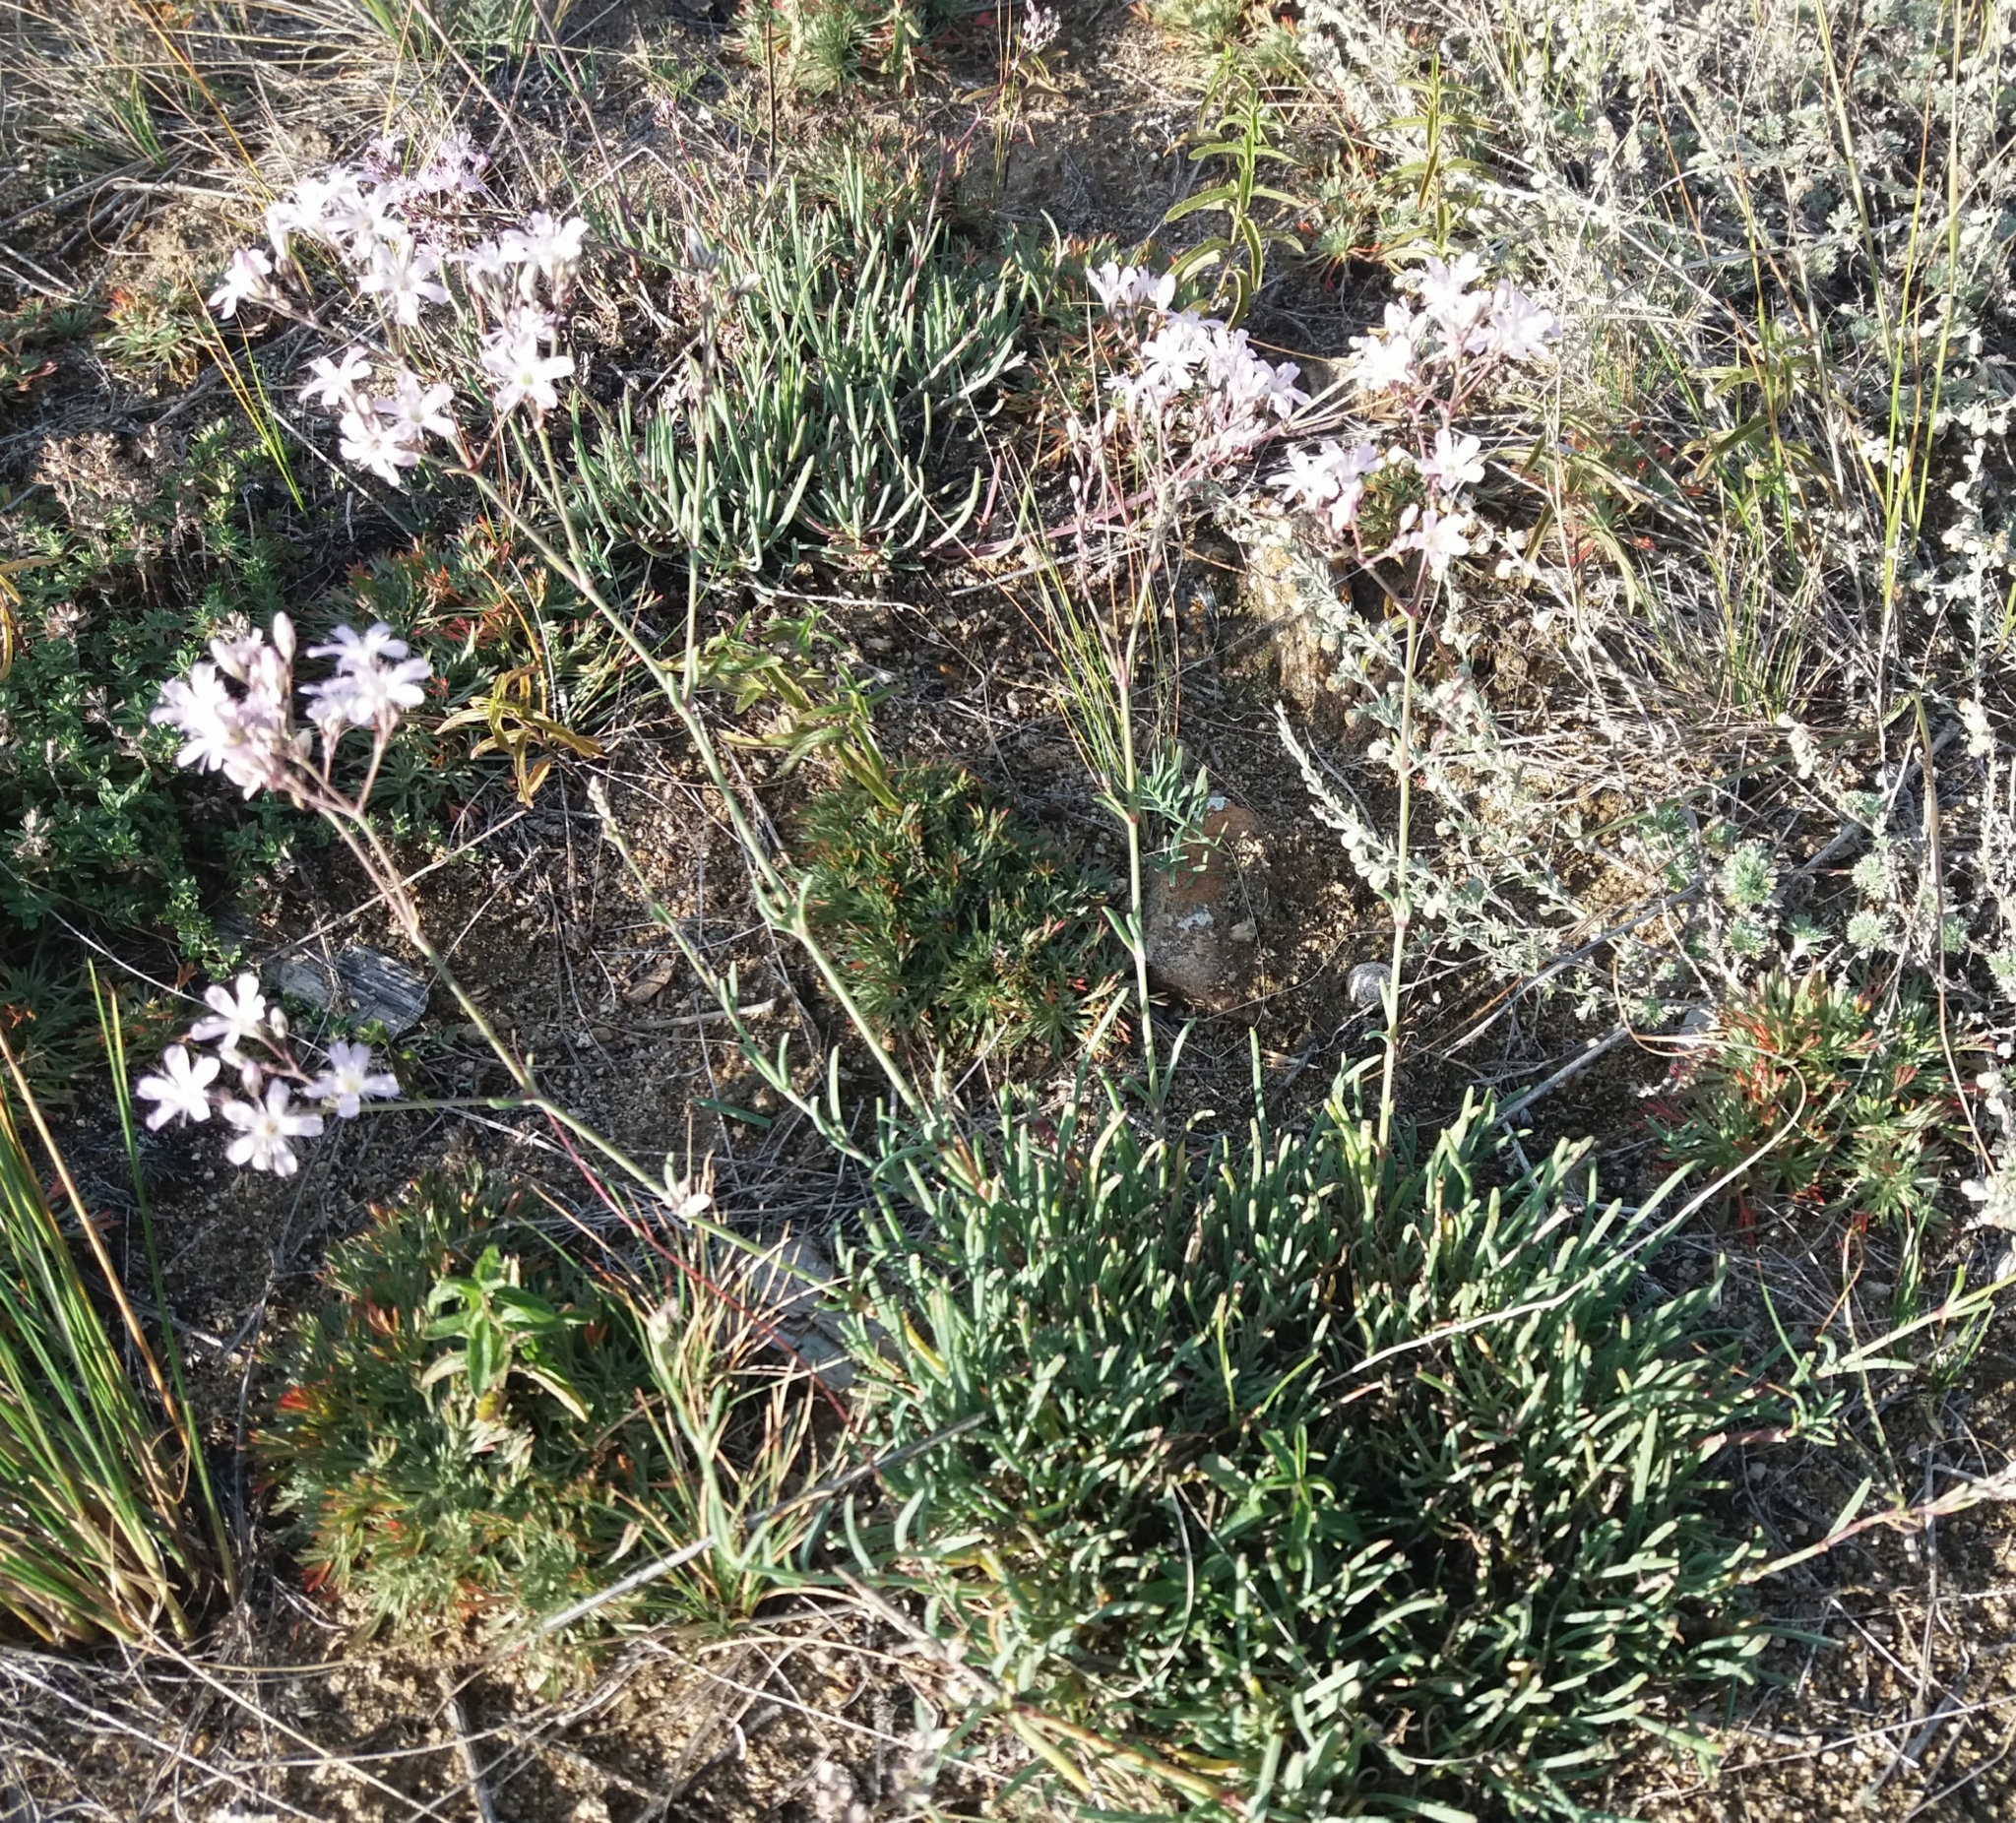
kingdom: Plantae
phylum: Tracheophyta
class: Magnoliopsida
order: Caryophyllales
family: Caryophyllaceae
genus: Gypsophila
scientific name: Gypsophila patrinii
